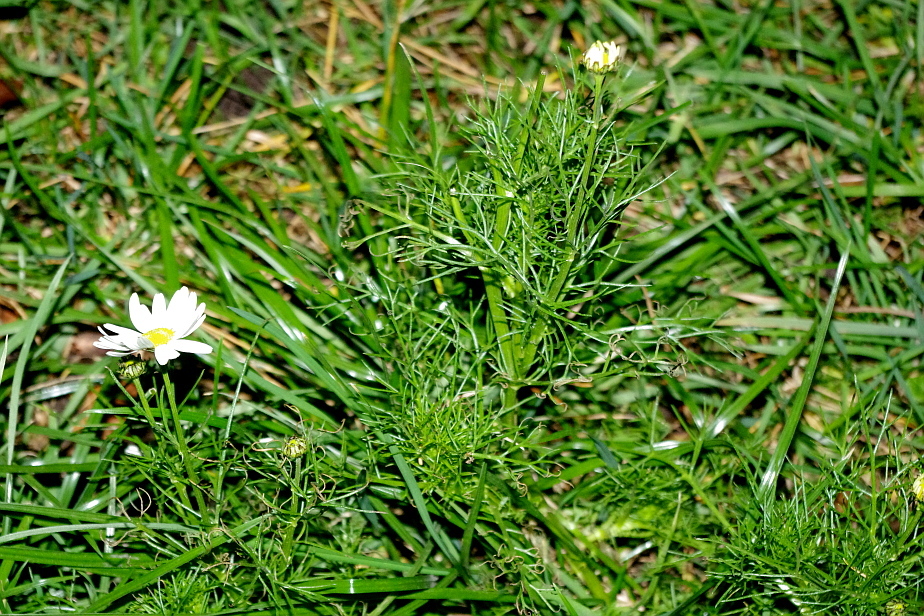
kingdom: Plantae
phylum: Tracheophyta
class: Magnoliopsida
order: Asterales
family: Asteraceae
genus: Tripleurospermum
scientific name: Tripleurospermum inodorum
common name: Scentless mayweed
